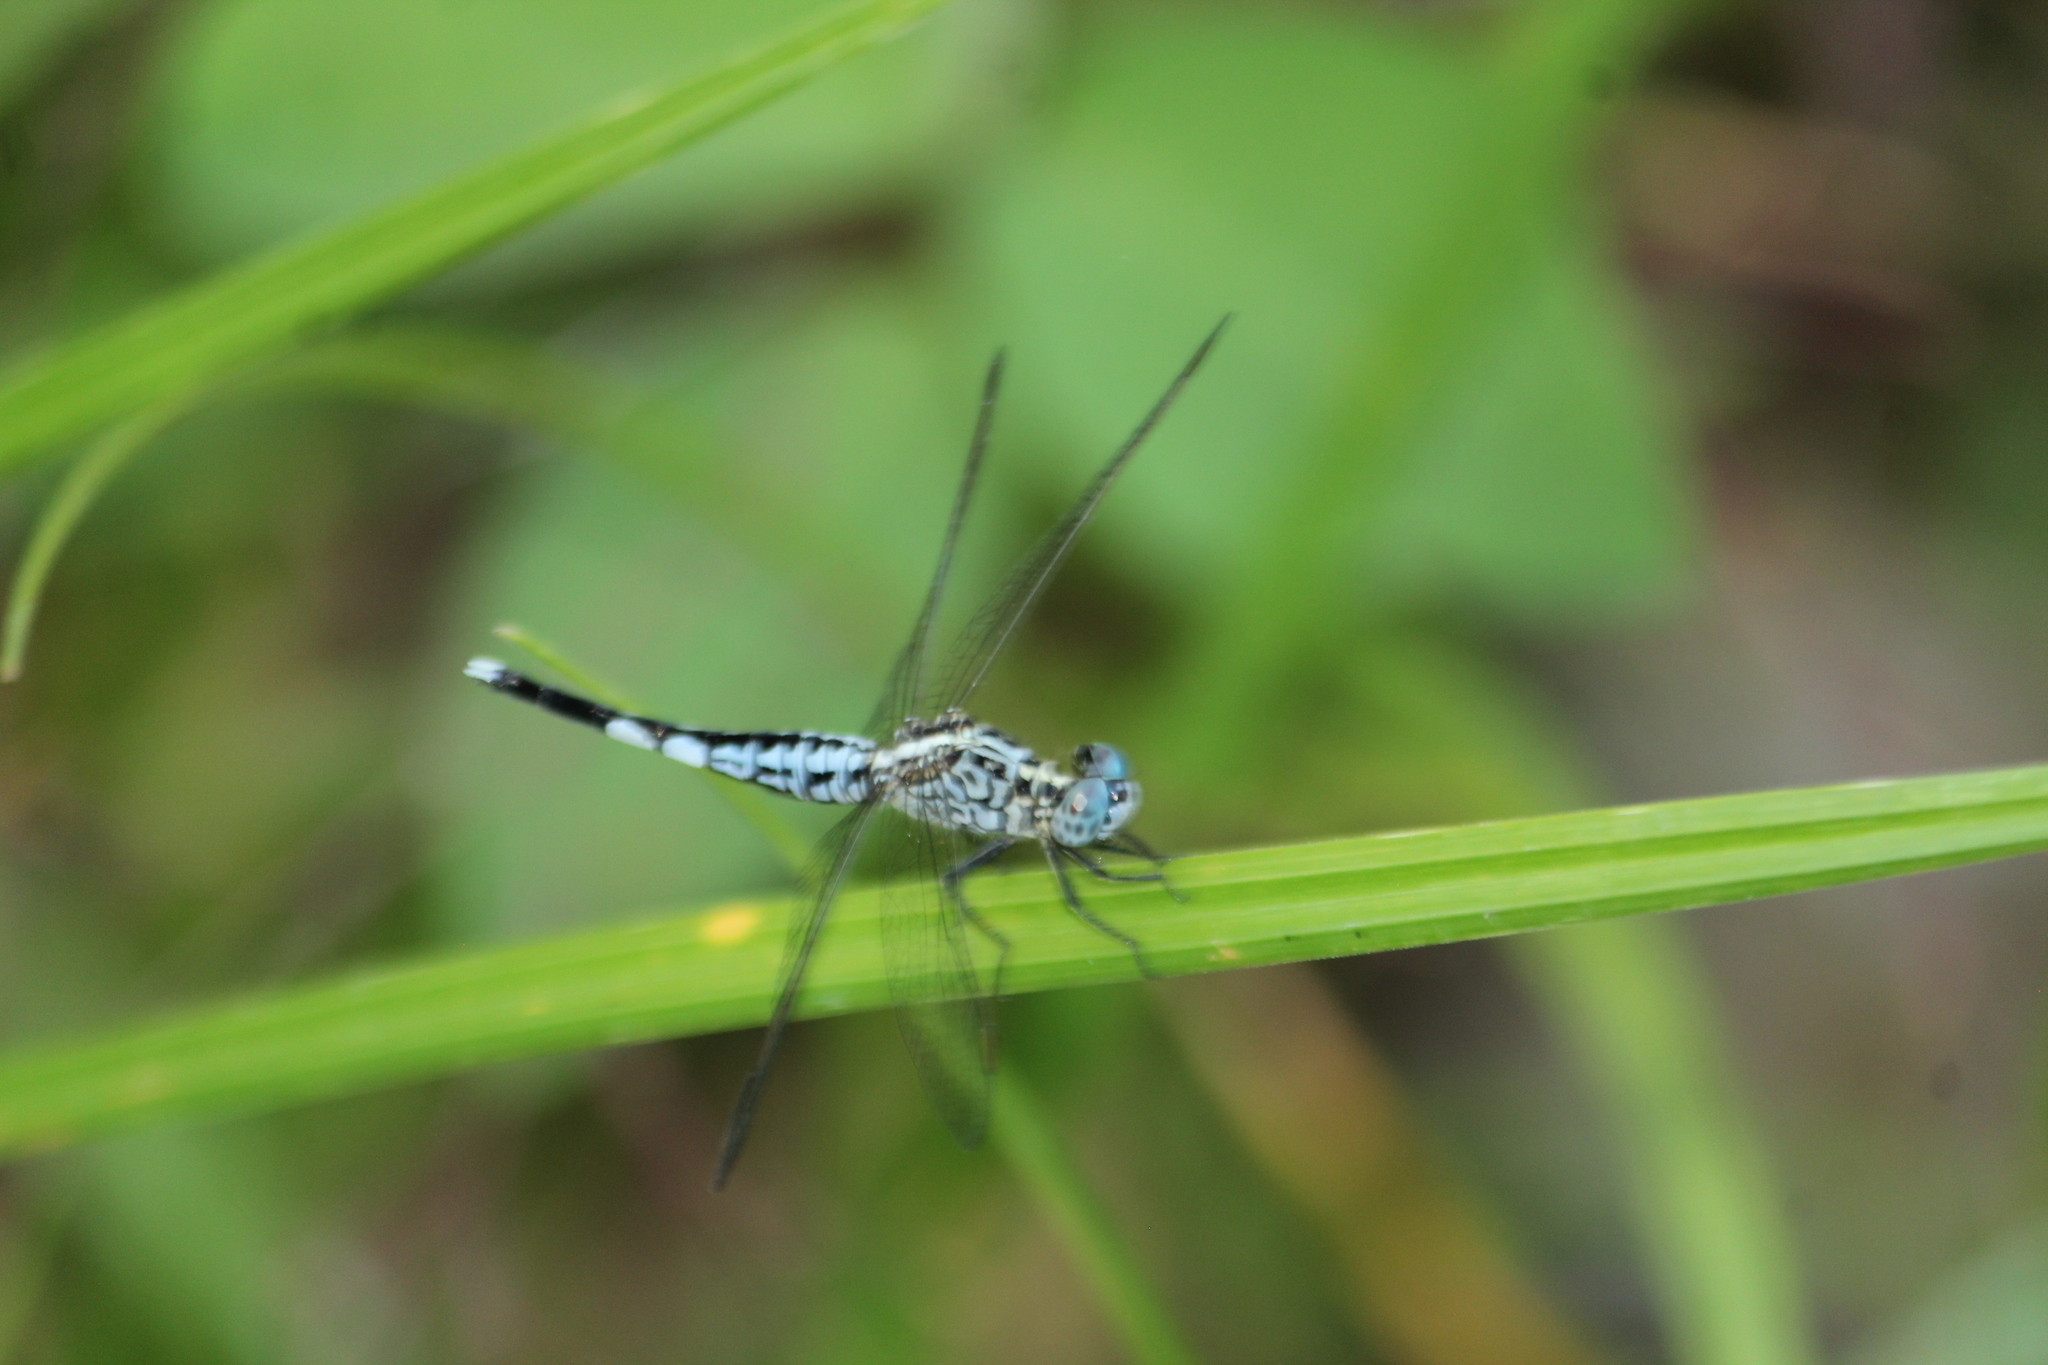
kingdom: Animalia
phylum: Arthropoda
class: Insecta
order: Odonata
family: Libellulidae
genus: Acisoma
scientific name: Acisoma panorpoides
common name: Asian pintail
